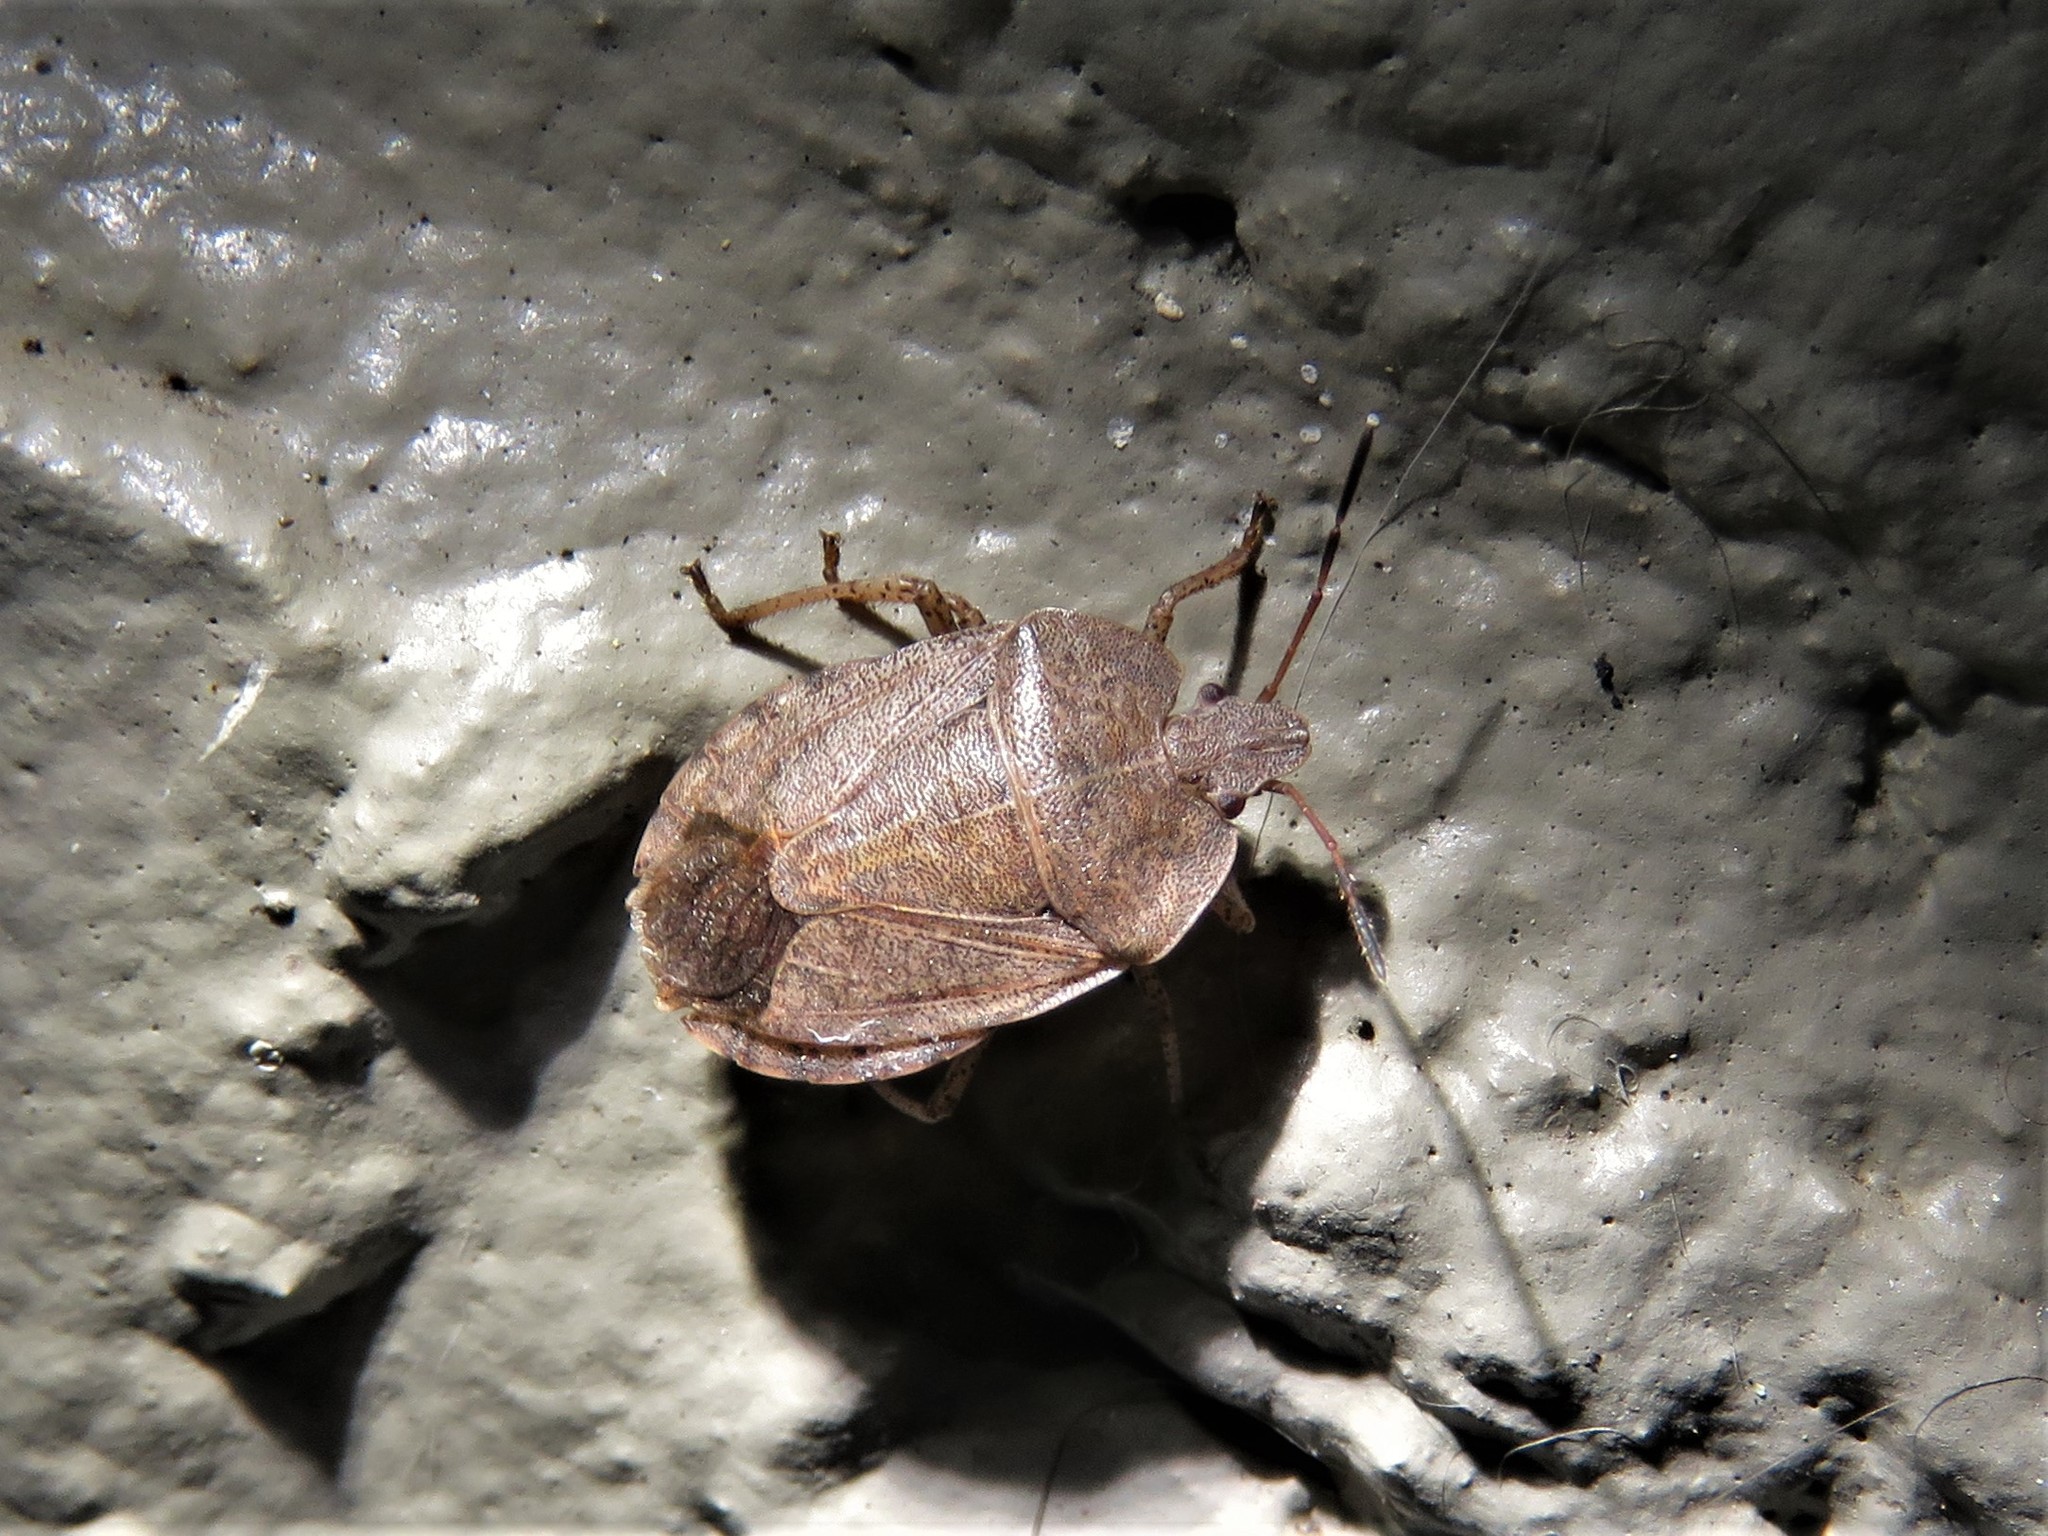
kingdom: Animalia
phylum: Arthropoda
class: Insecta
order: Hemiptera
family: Pentatomidae
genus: Menecles
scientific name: Menecles insertus
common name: Elf shoe stink bug
